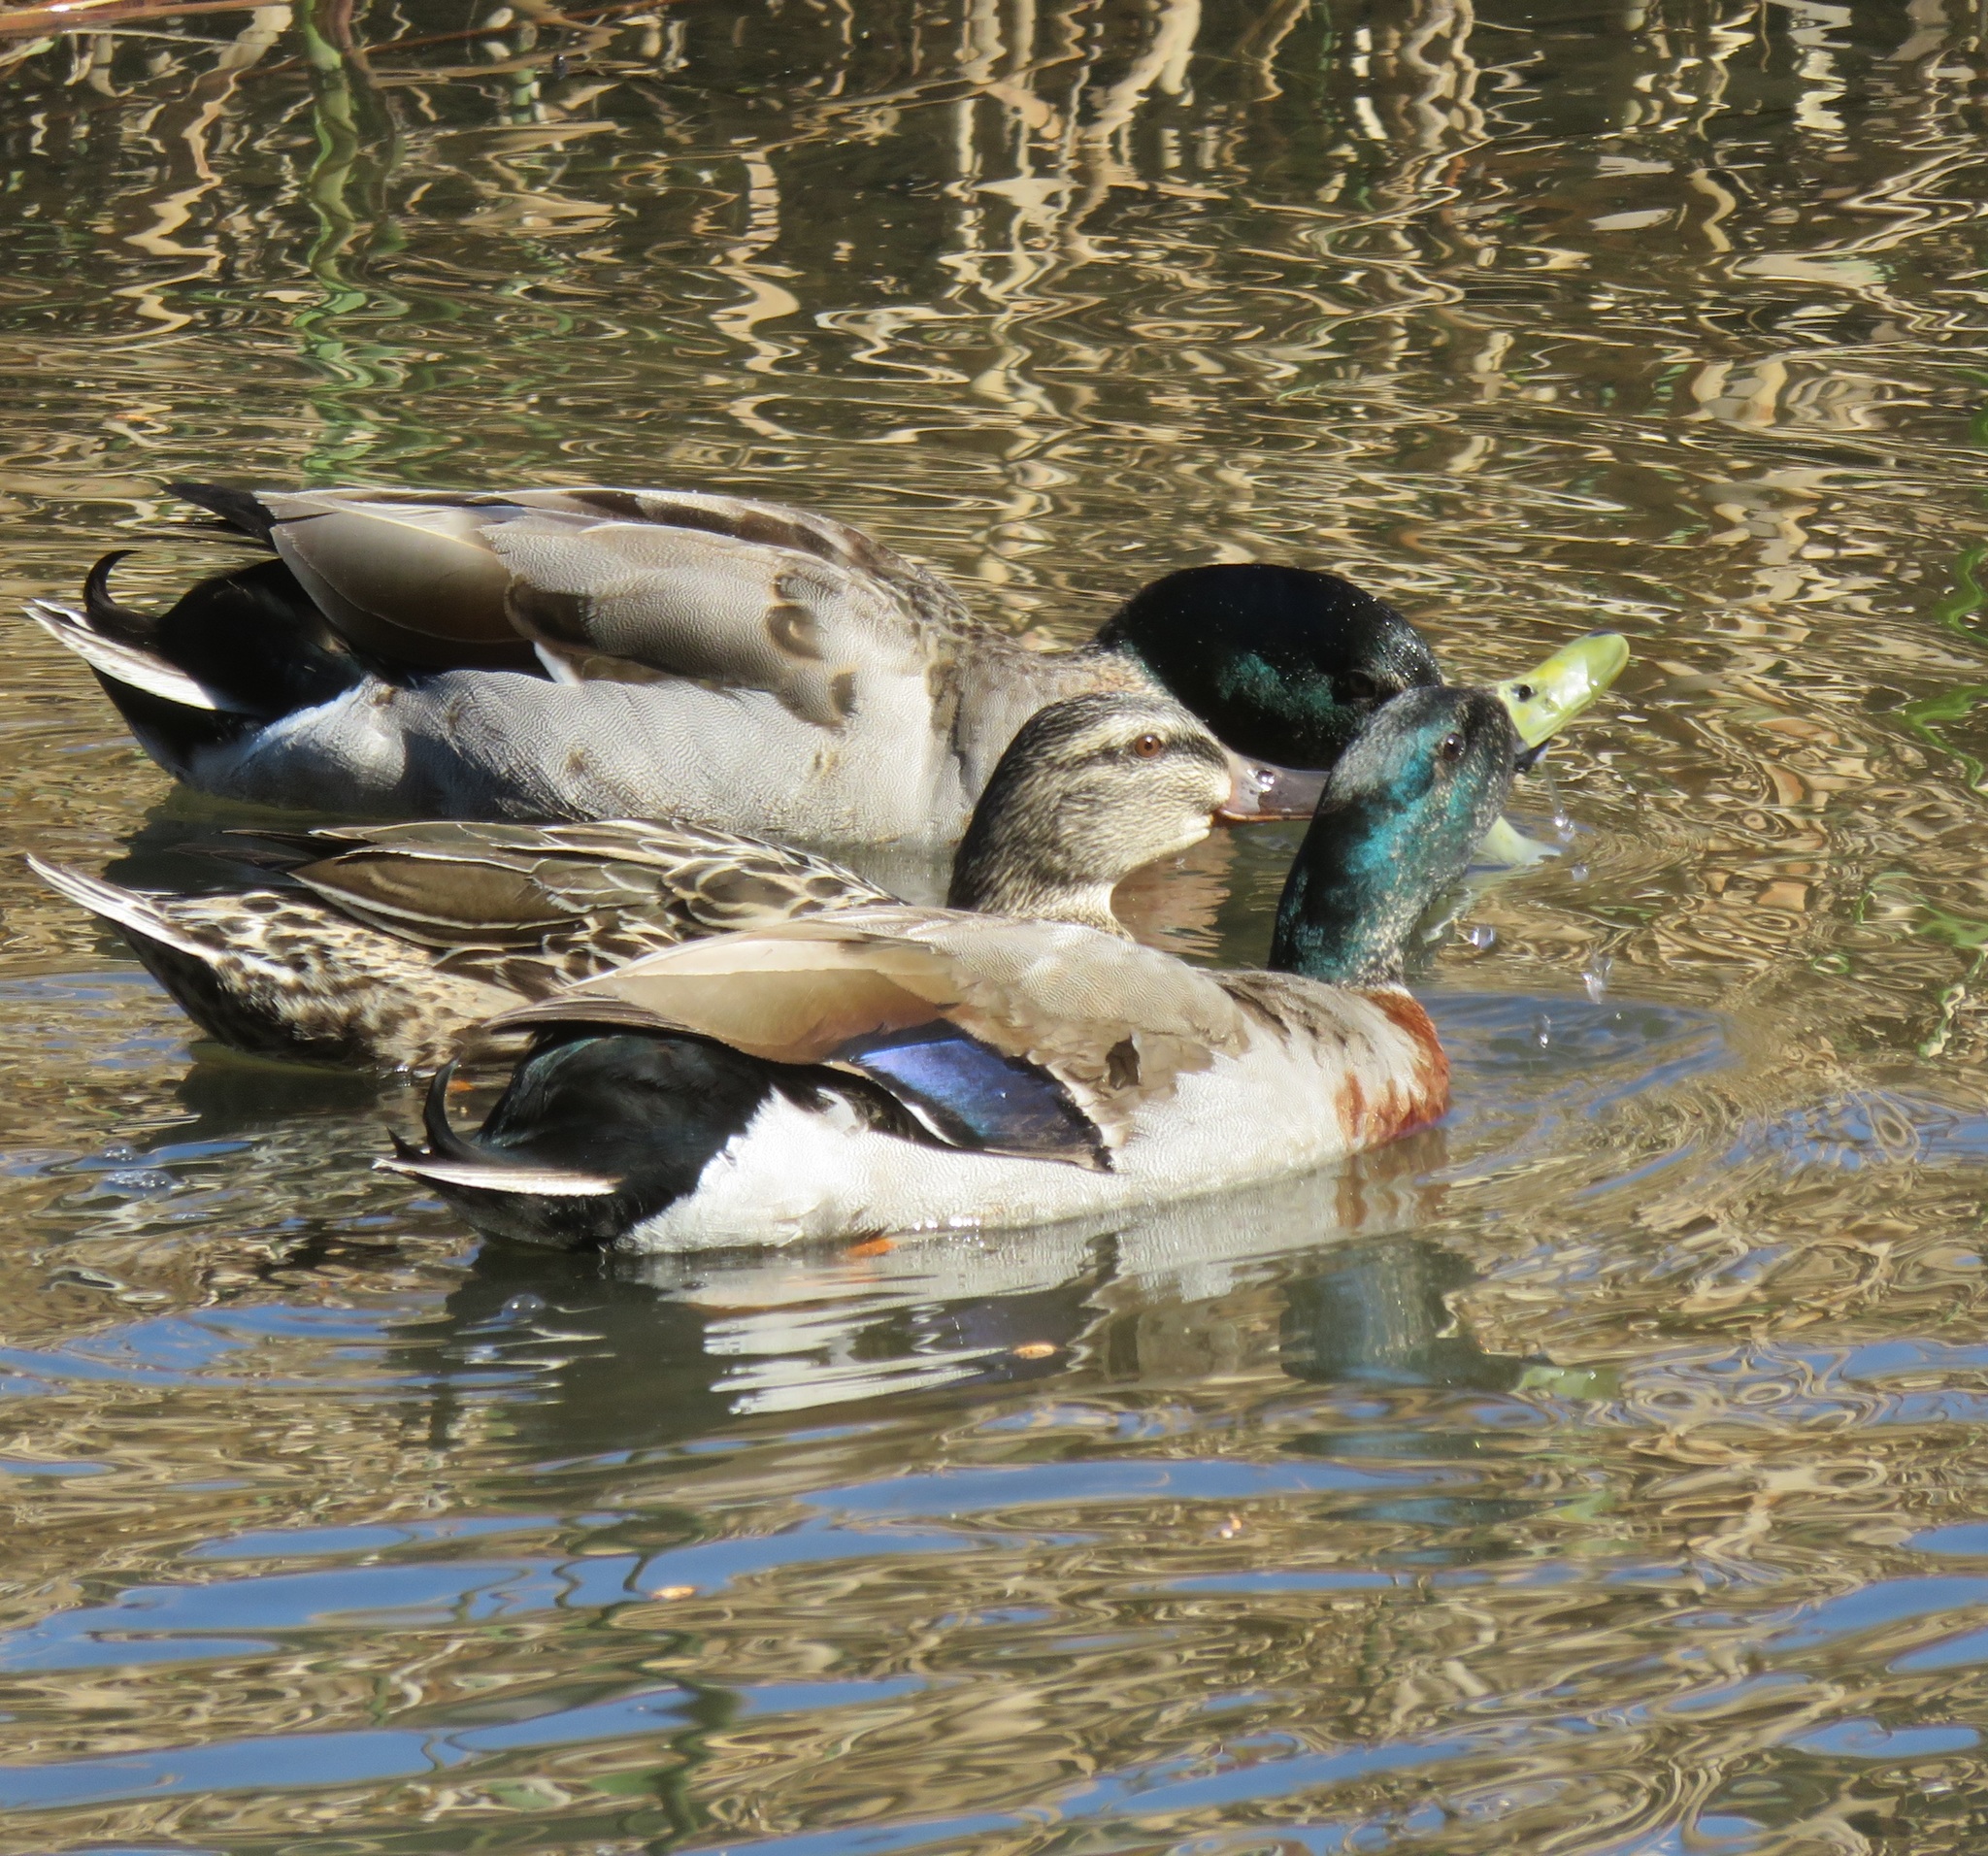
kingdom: Animalia
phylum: Chordata
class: Aves
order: Anseriformes
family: Anatidae
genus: Anas
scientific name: Anas platyrhynchos
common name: Mallard
